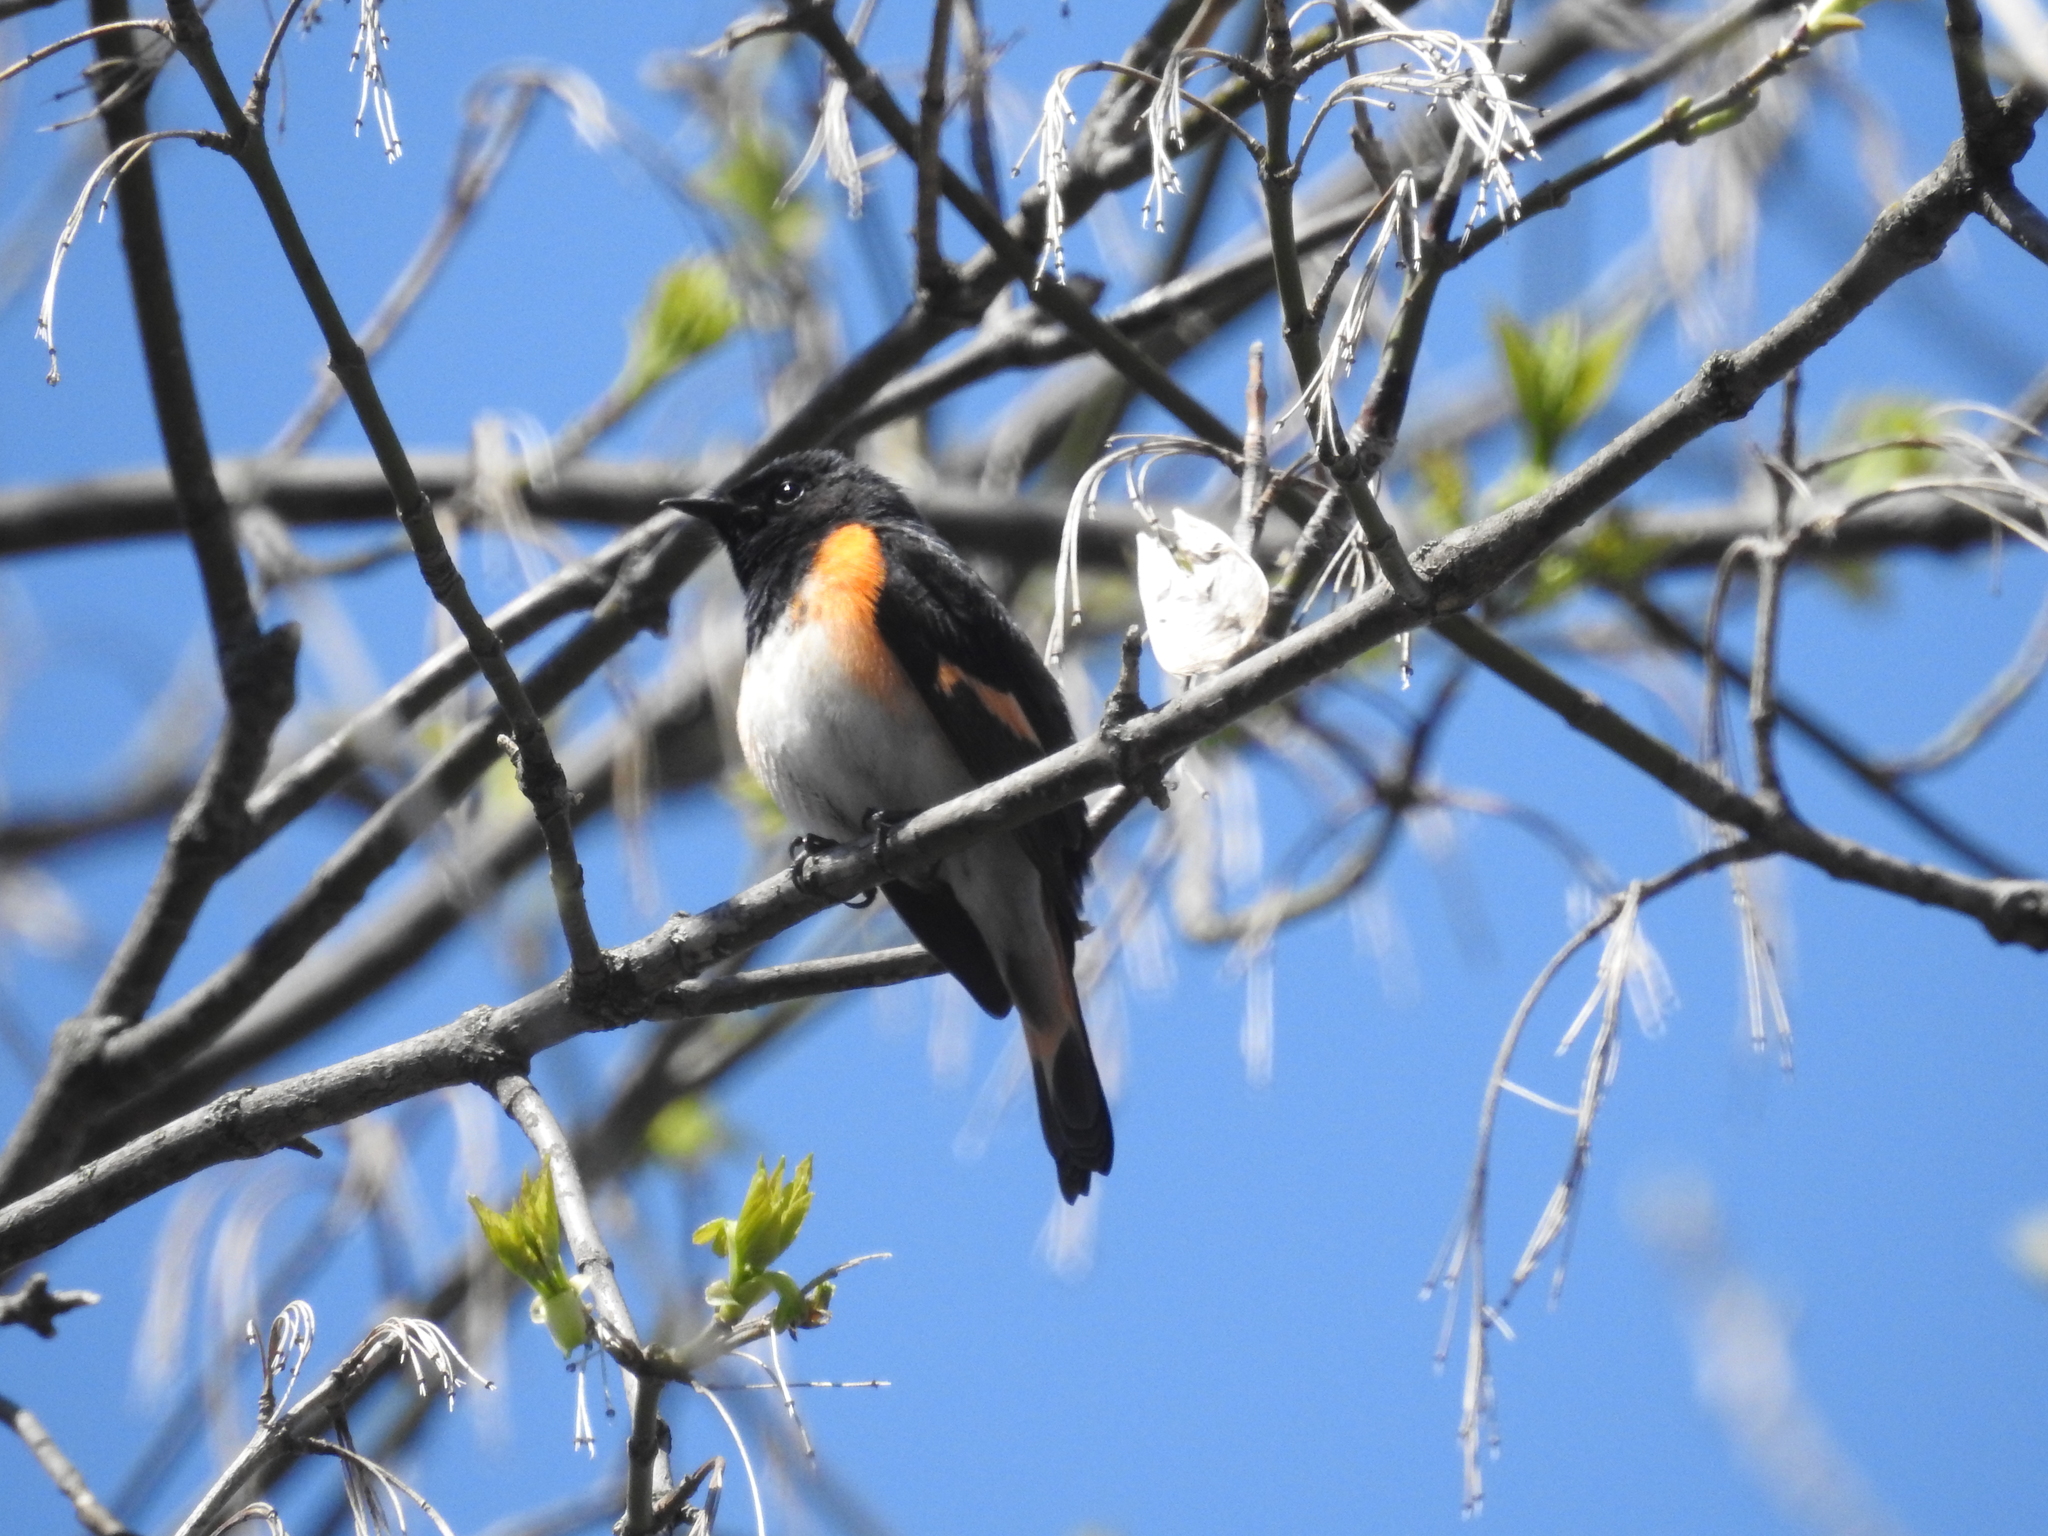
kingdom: Animalia
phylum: Chordata
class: Aves
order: Passeriformes
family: Parulidae
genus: Setophaga
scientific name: Setophaga ruticilla
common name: American redstart
